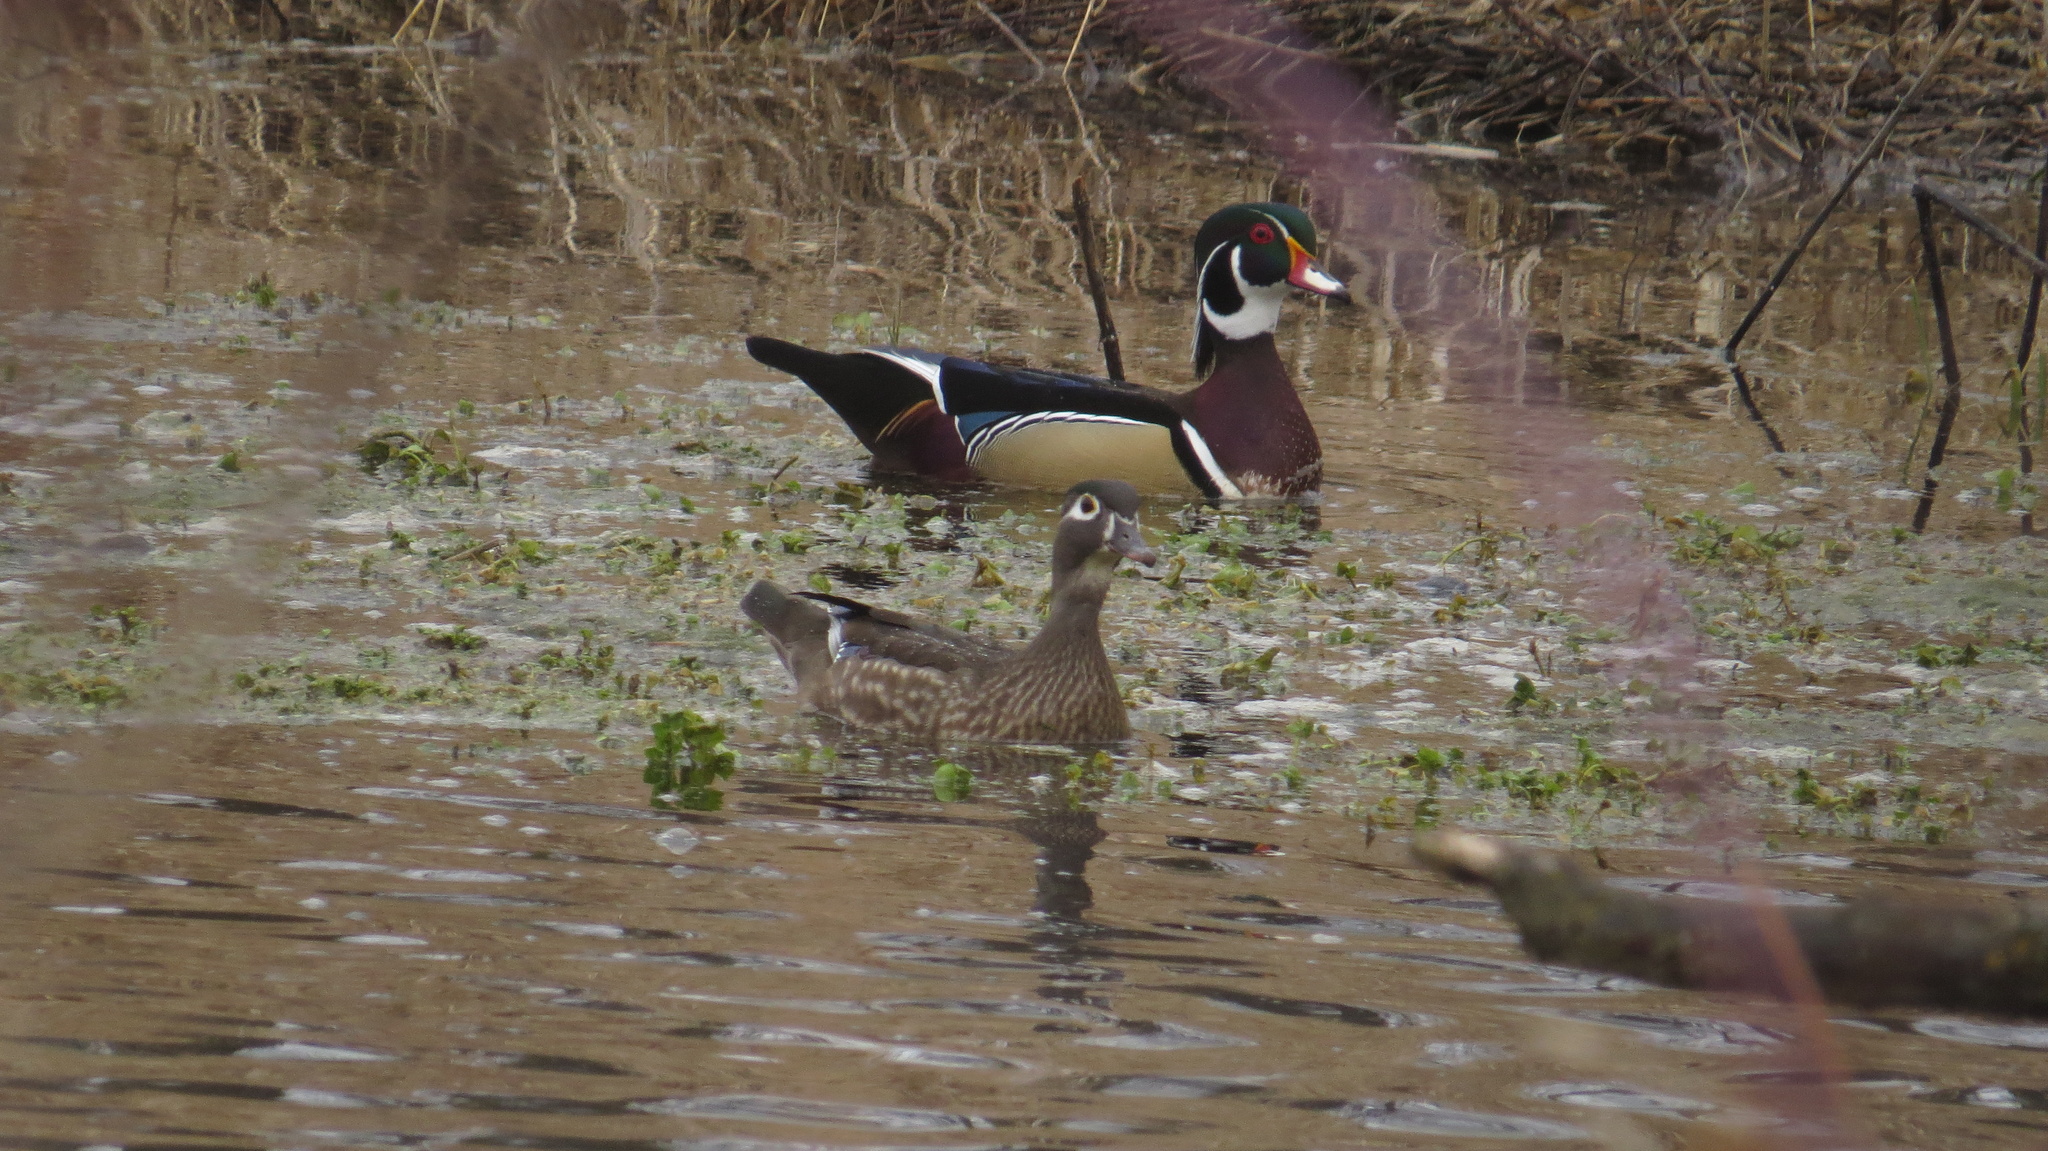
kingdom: Animalia
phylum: Chordata
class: Aves
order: Anseriformes
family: Anatidae
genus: Aix
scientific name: Aix sponsa
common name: Wood duck
